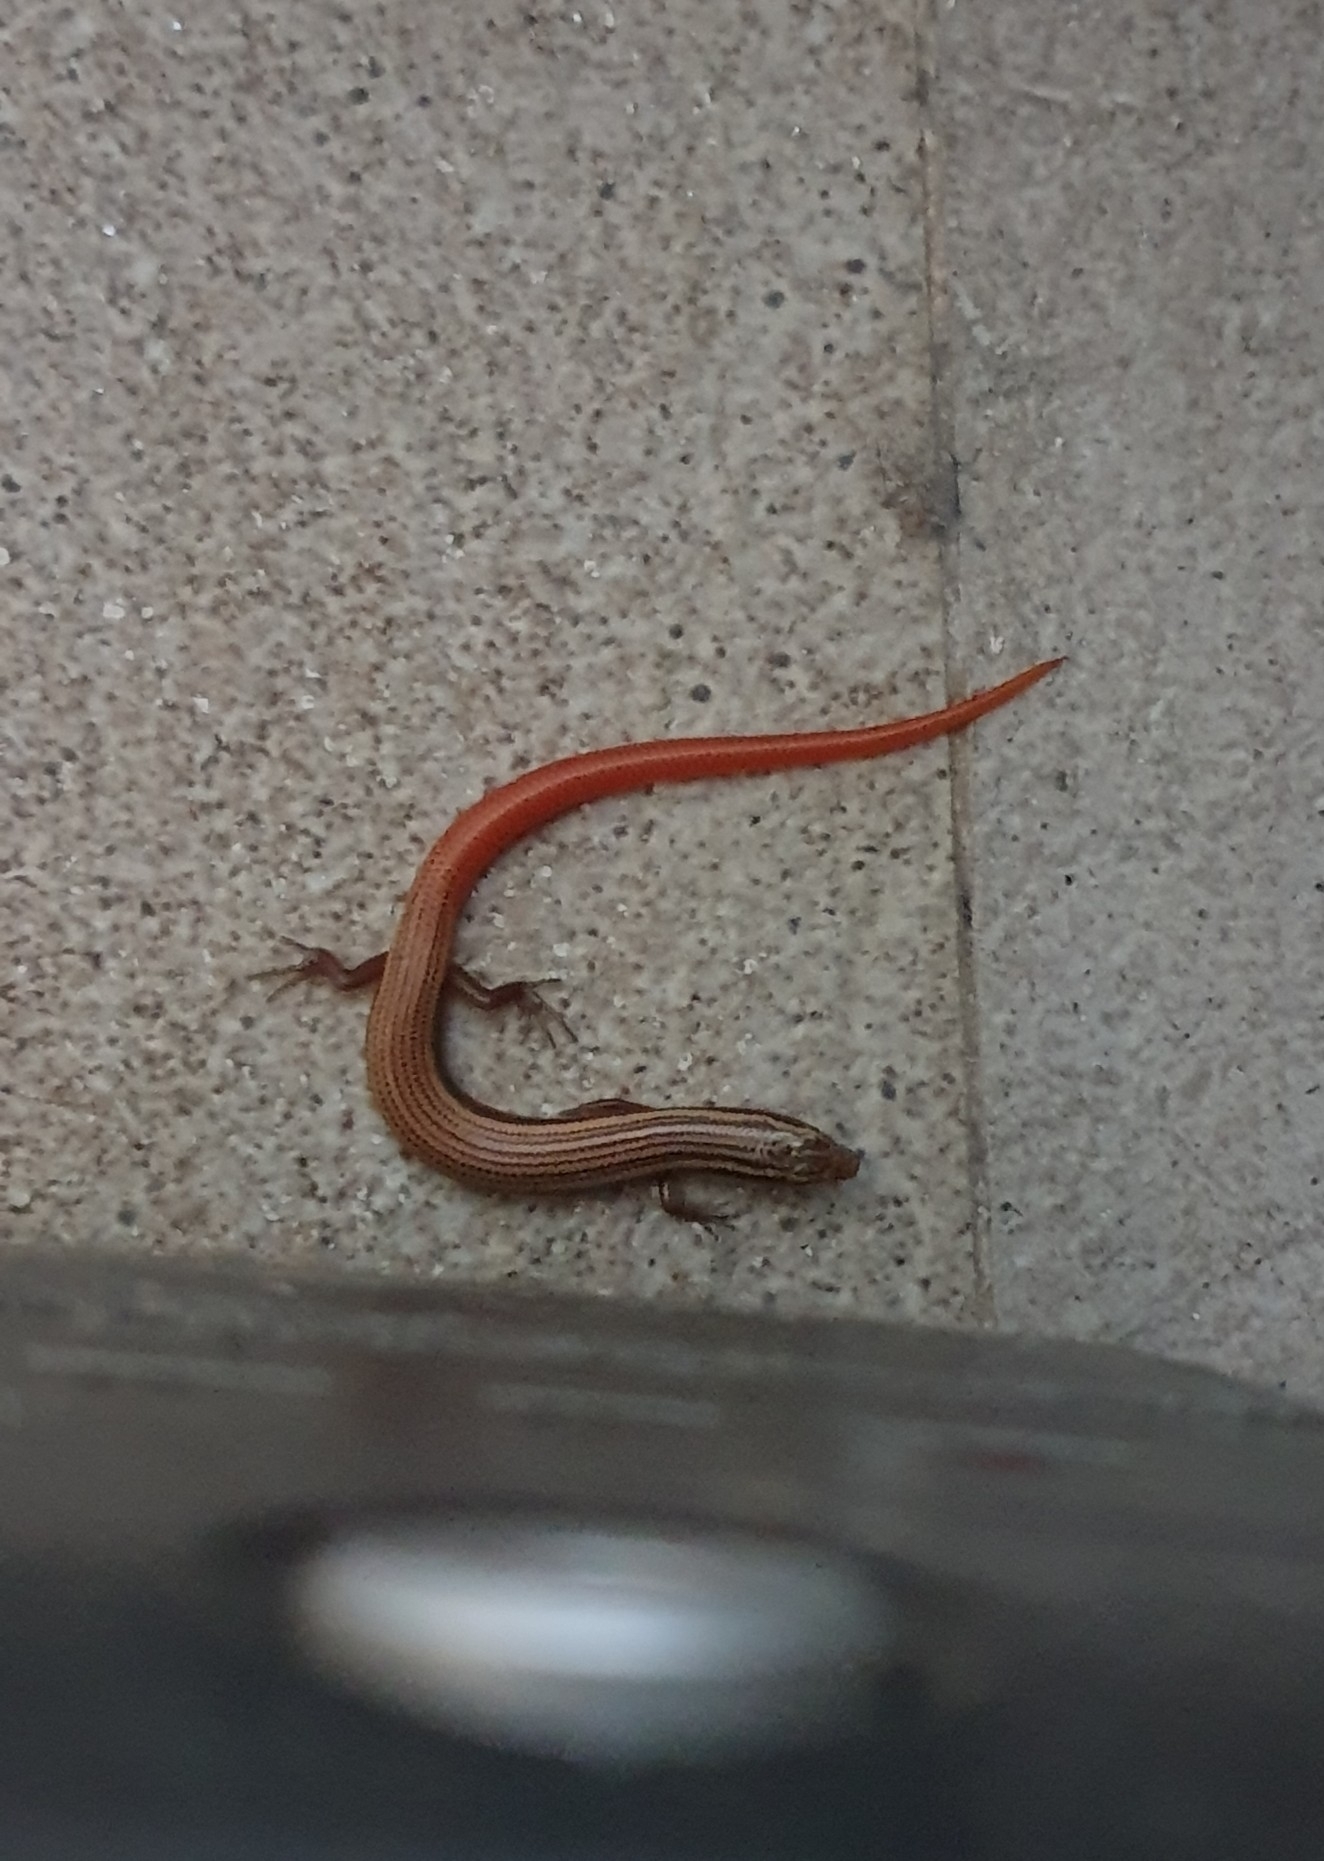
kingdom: Animalia
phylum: Chordata
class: Squamata
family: Scincidae
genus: Riopa
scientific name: Riopa punctata
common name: Common dotted garden skink
